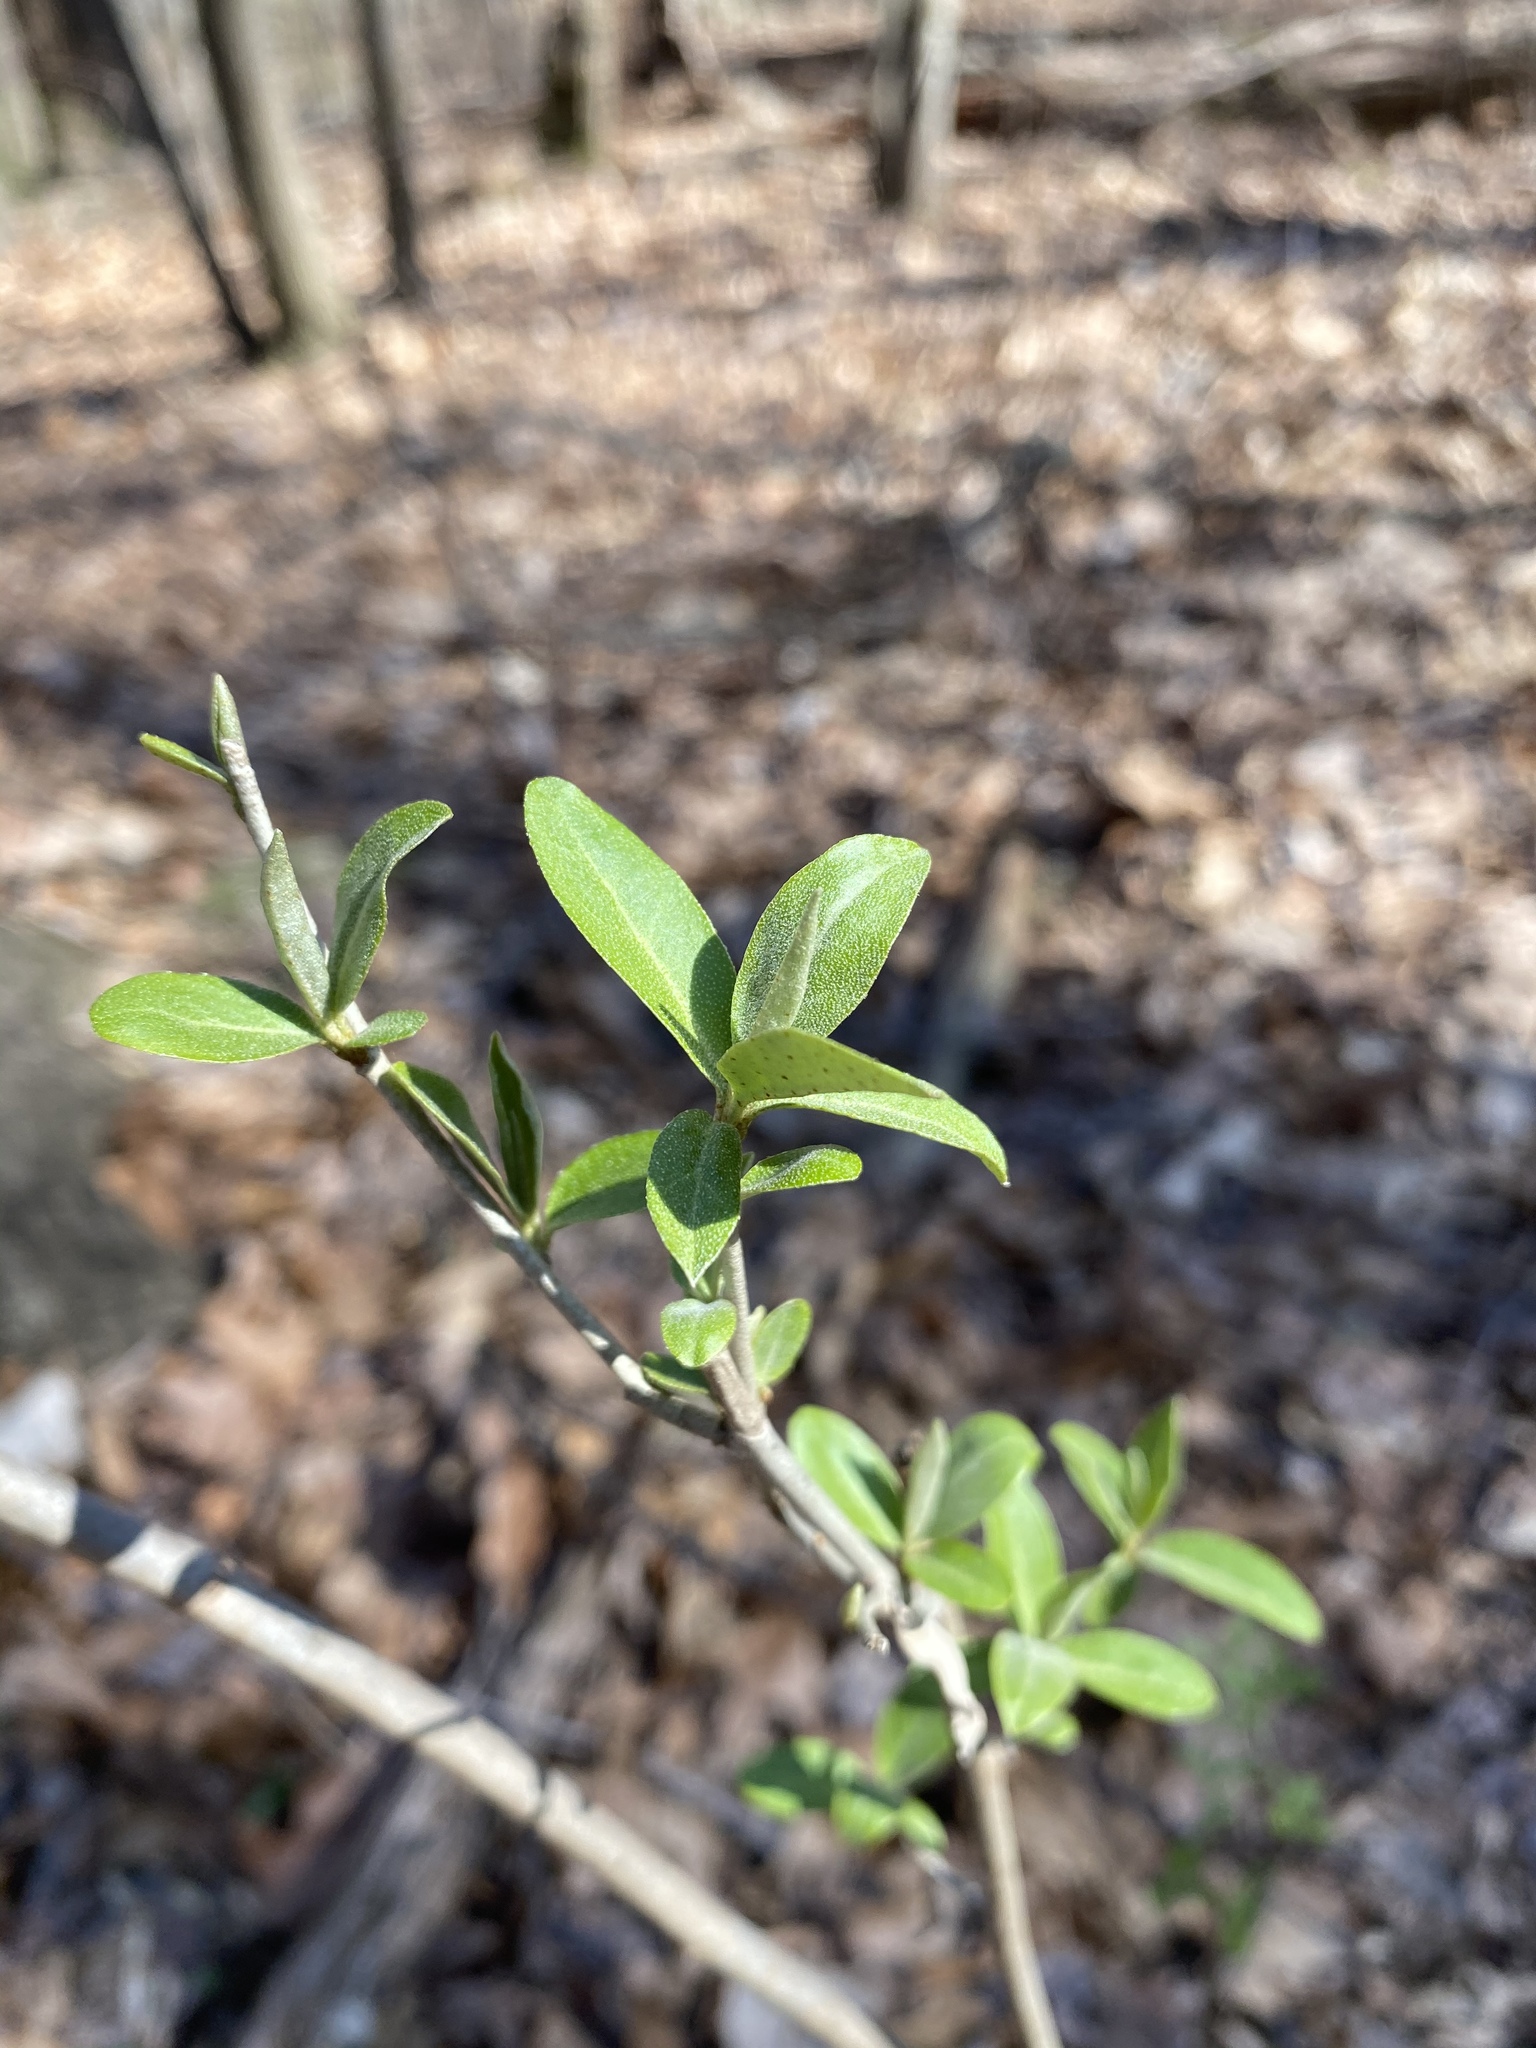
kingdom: Plantae
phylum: Tracheophyta
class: Magnoliopsida
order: Rosales
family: Elaeagnaceae
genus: Elaeagnus
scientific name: Elaeagnus umbellata
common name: Autumn olive
